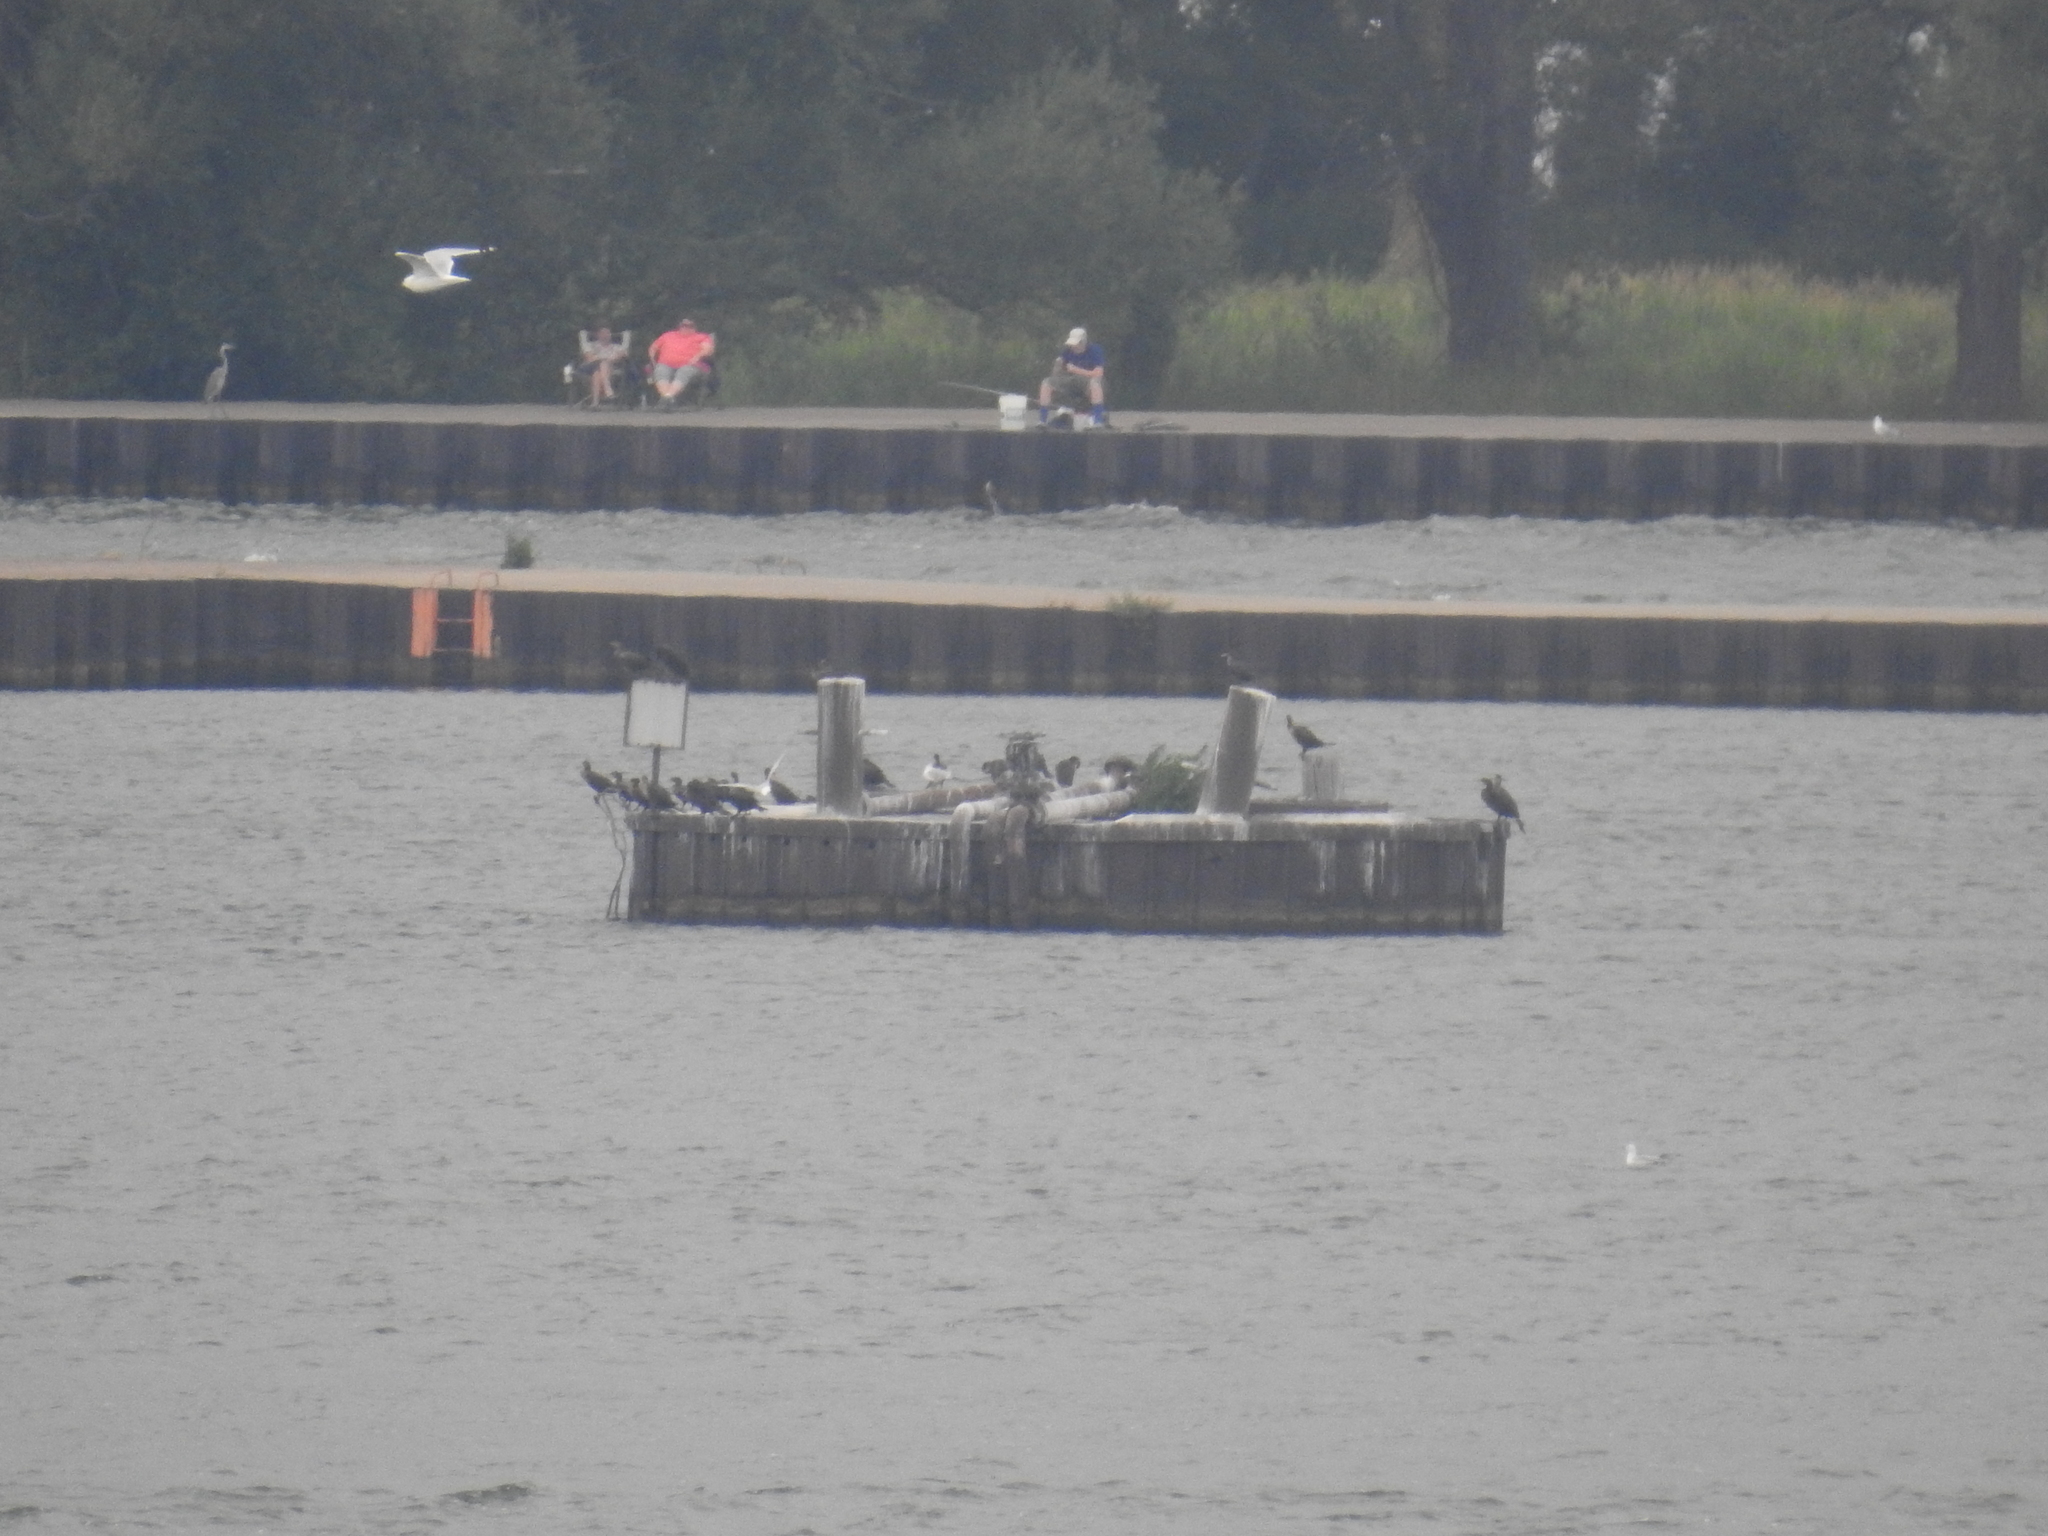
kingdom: Animalia
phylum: Chordata
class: Aves
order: Charadriiformes
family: Laridae
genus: Larus
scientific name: Larus delawarensis
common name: Ring-billed gull
